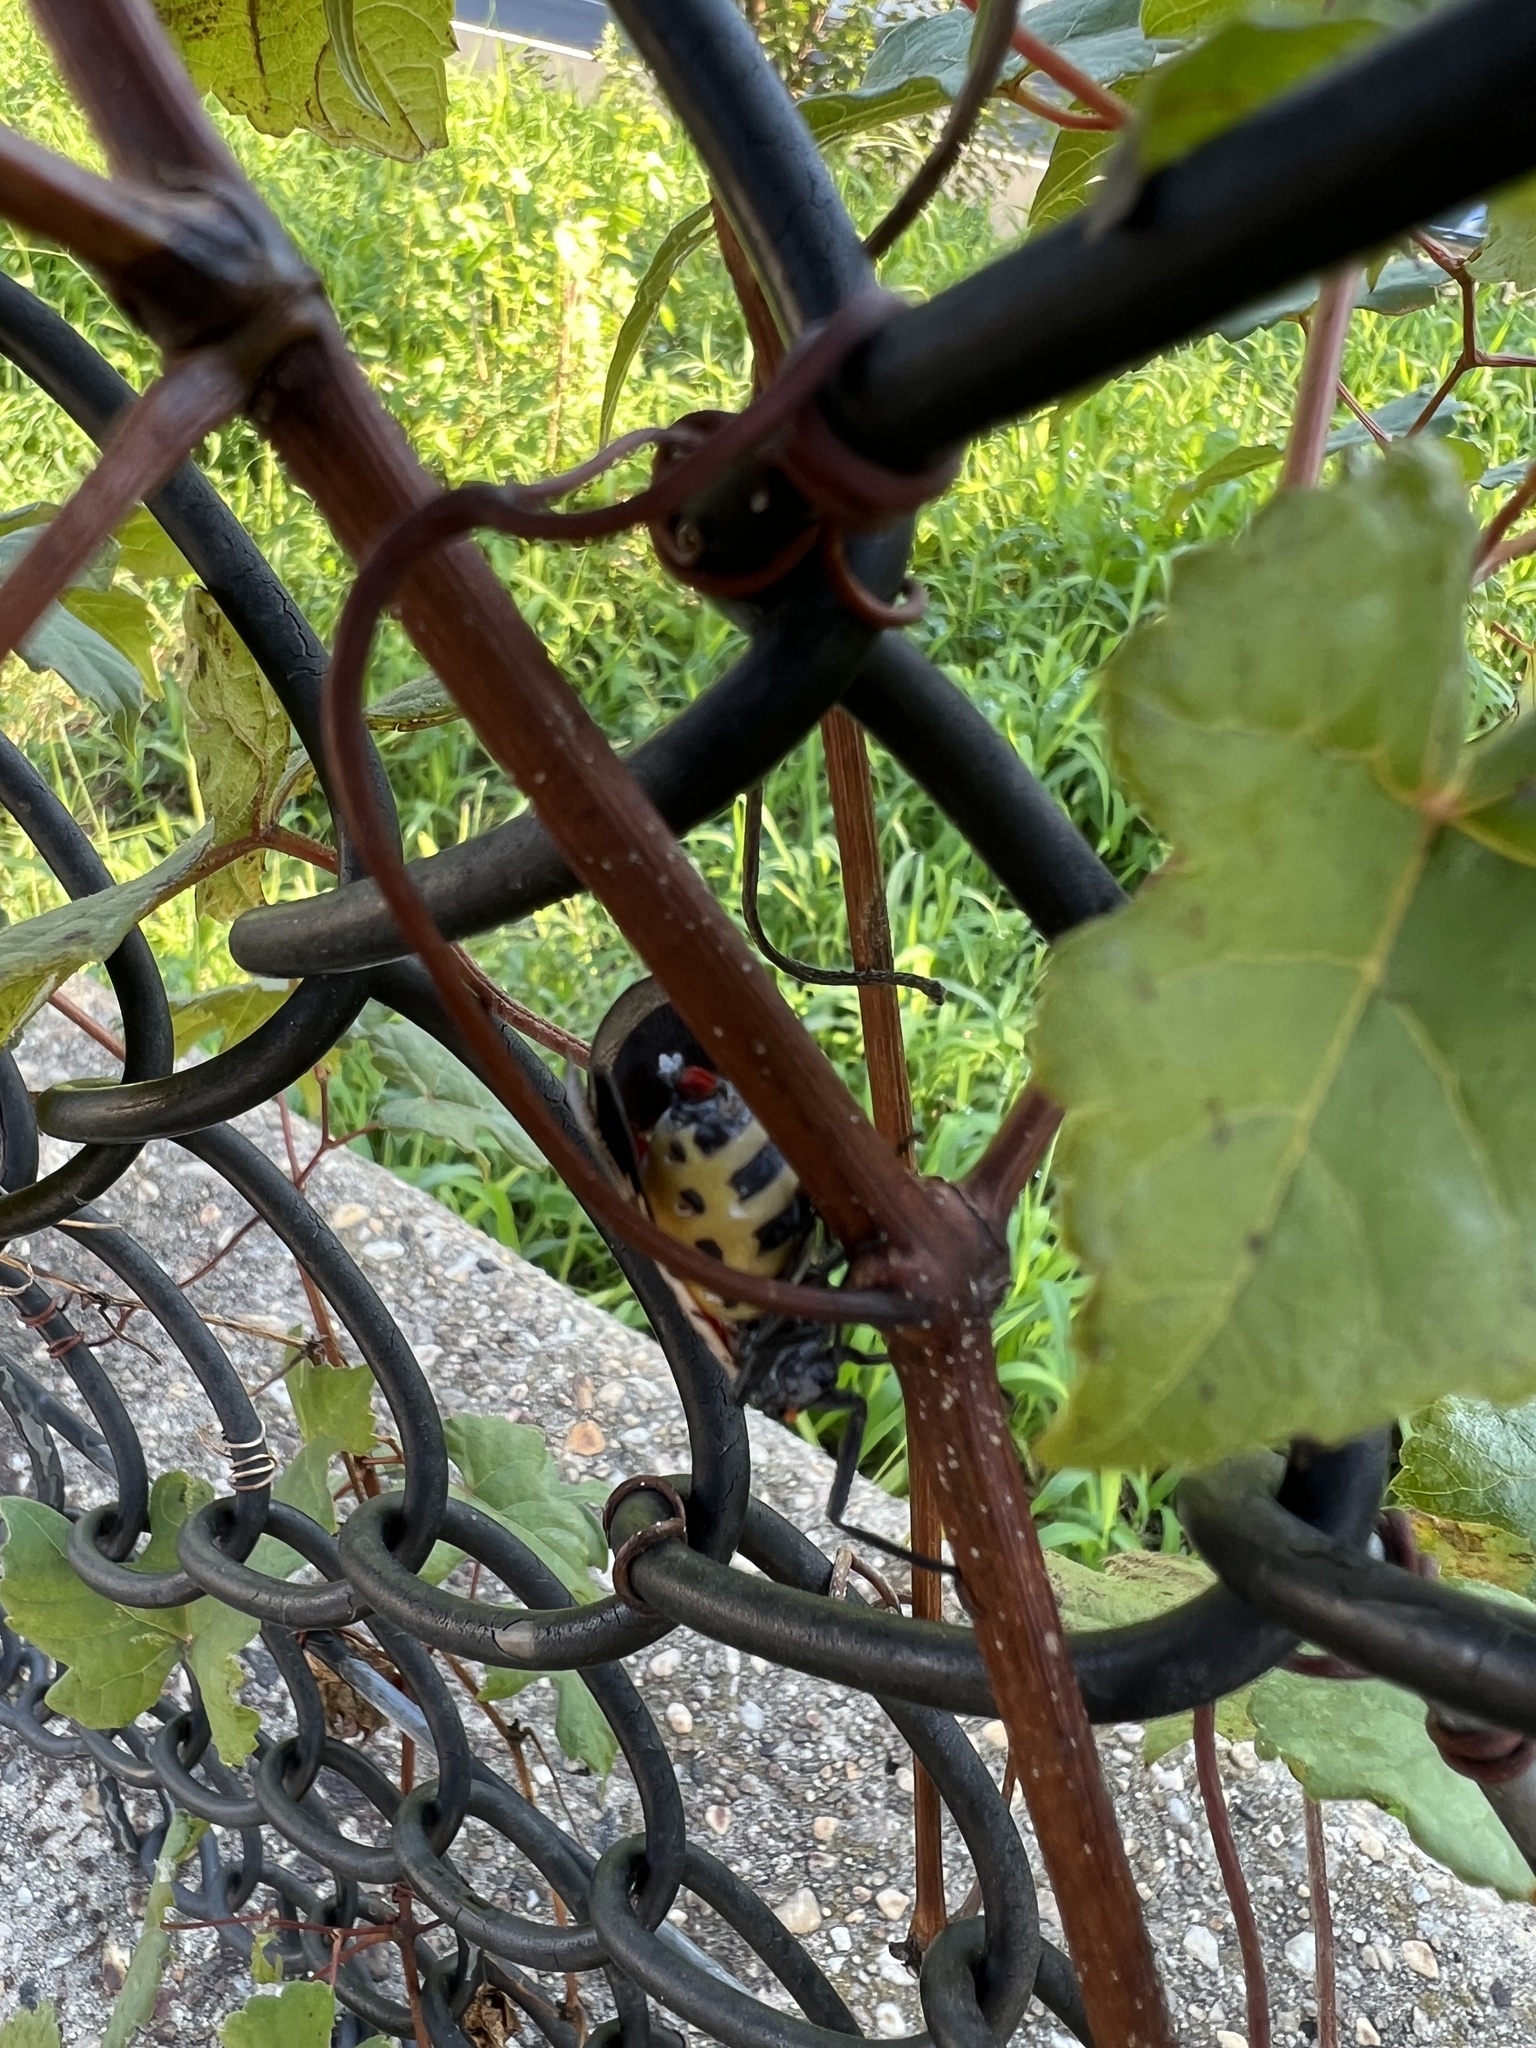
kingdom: Animalia
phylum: Arthropoda
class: Insecta
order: Hemiptera
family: Fulgoridae
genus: Lycorma
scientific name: Lycorma delicatula
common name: Spotted lanternfly
